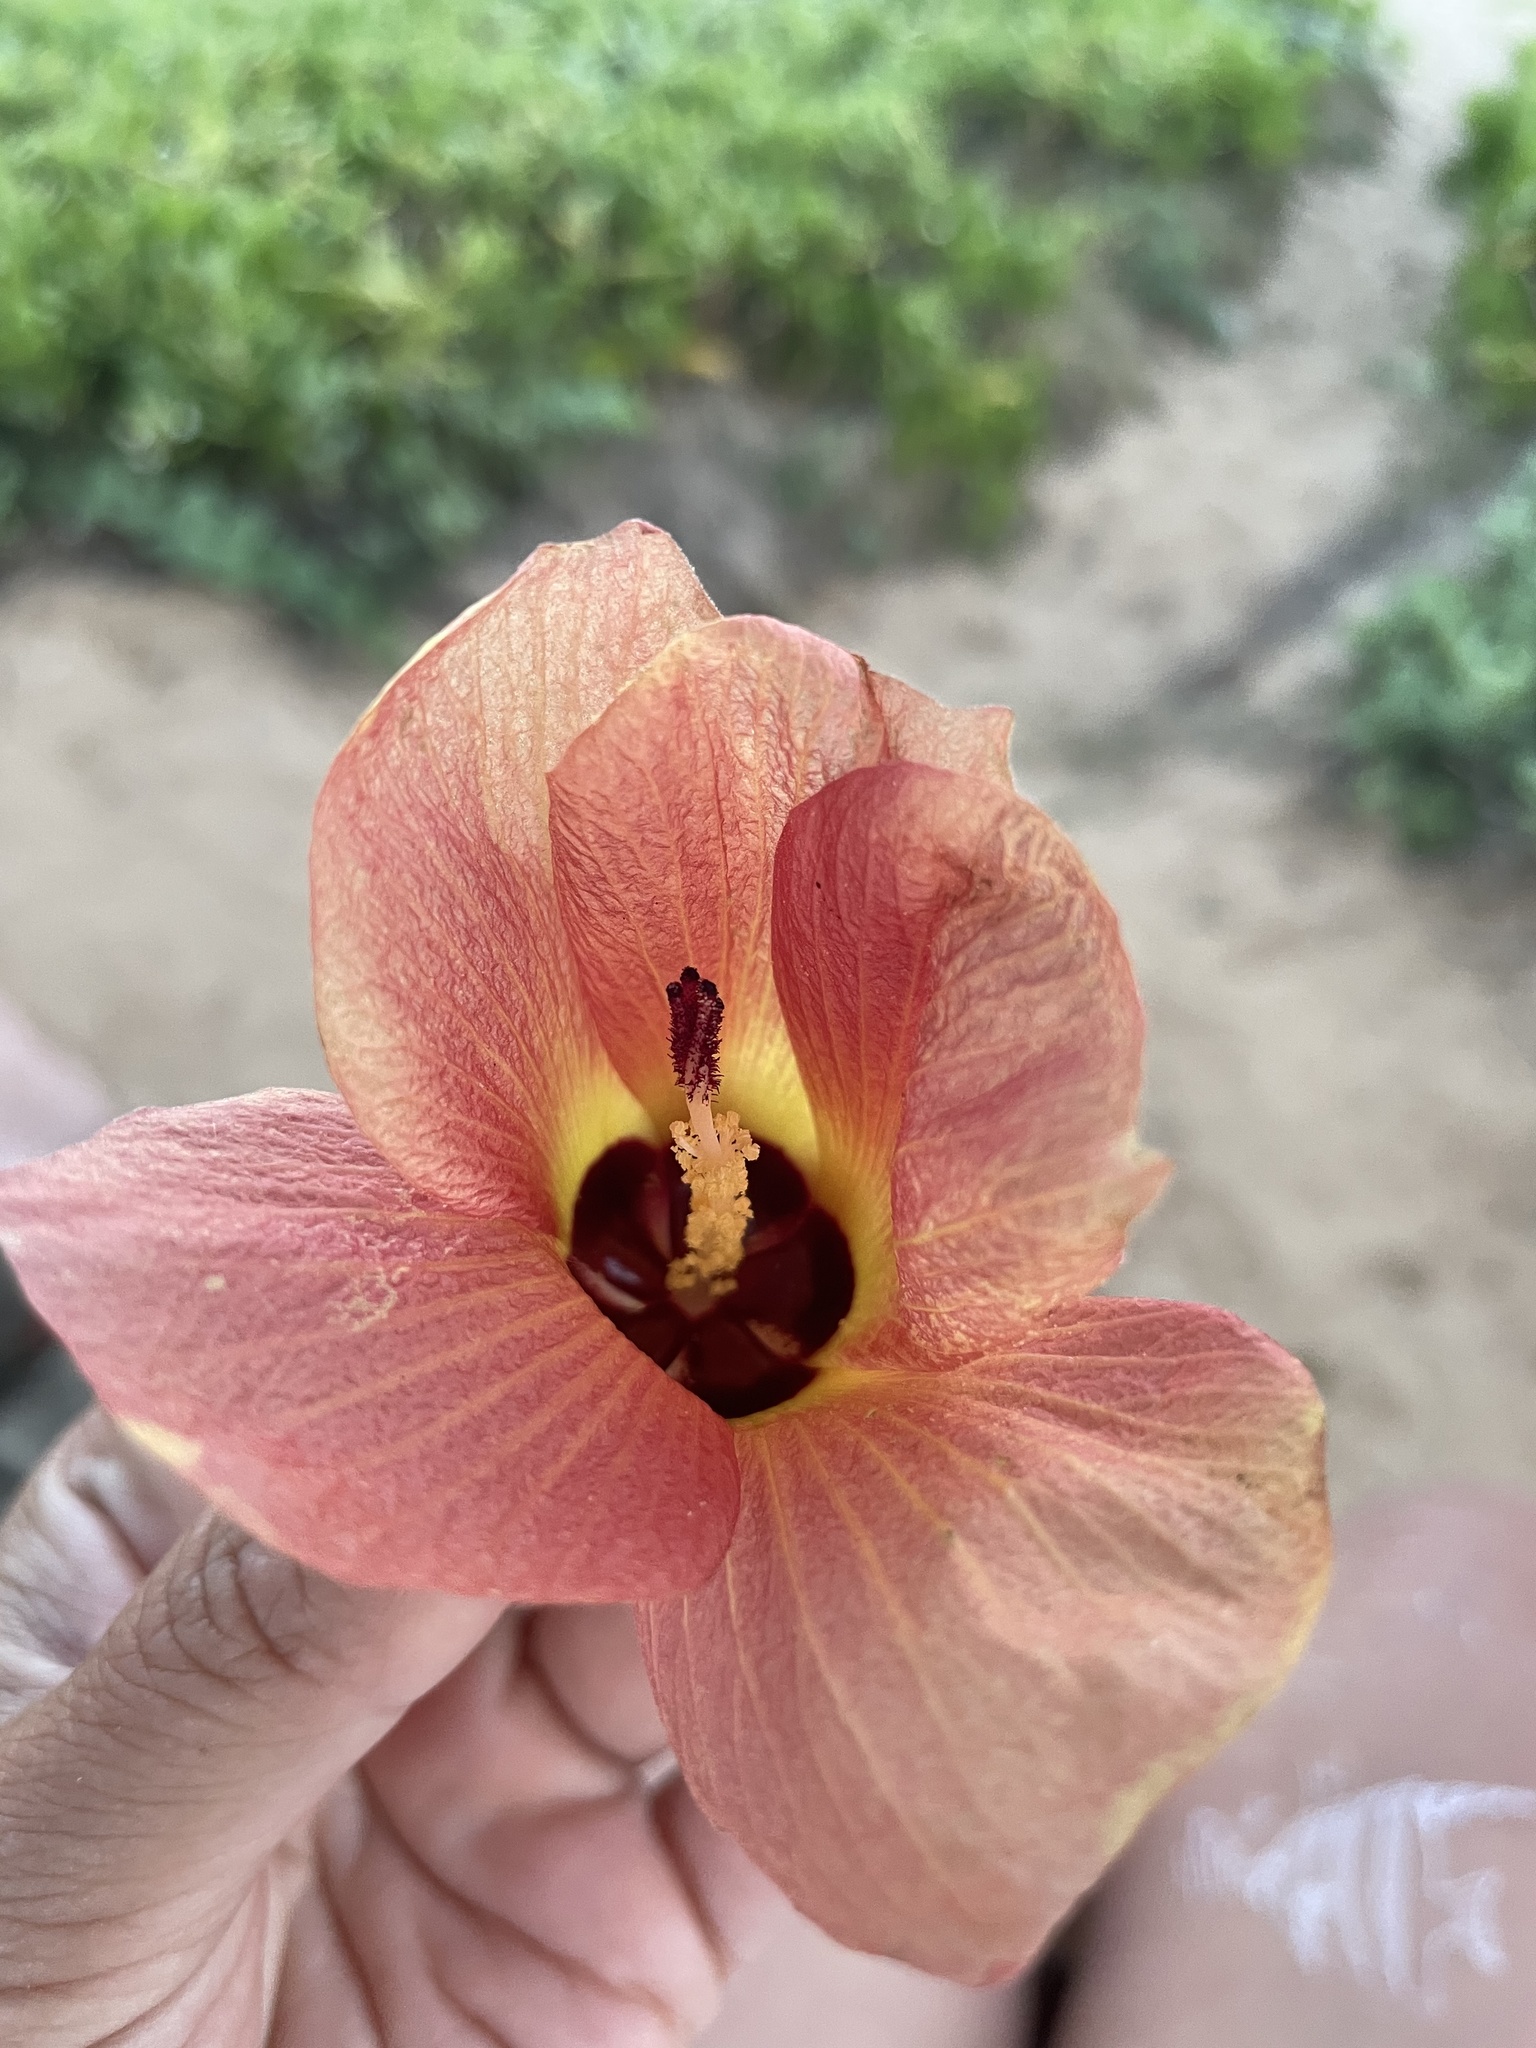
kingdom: Plantae
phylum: Tracheophyta
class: Magnoliopsida
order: Malvales
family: Malvaceae
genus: Talipariti
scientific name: Talipariti tiliaceum
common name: Sea hibiscus
